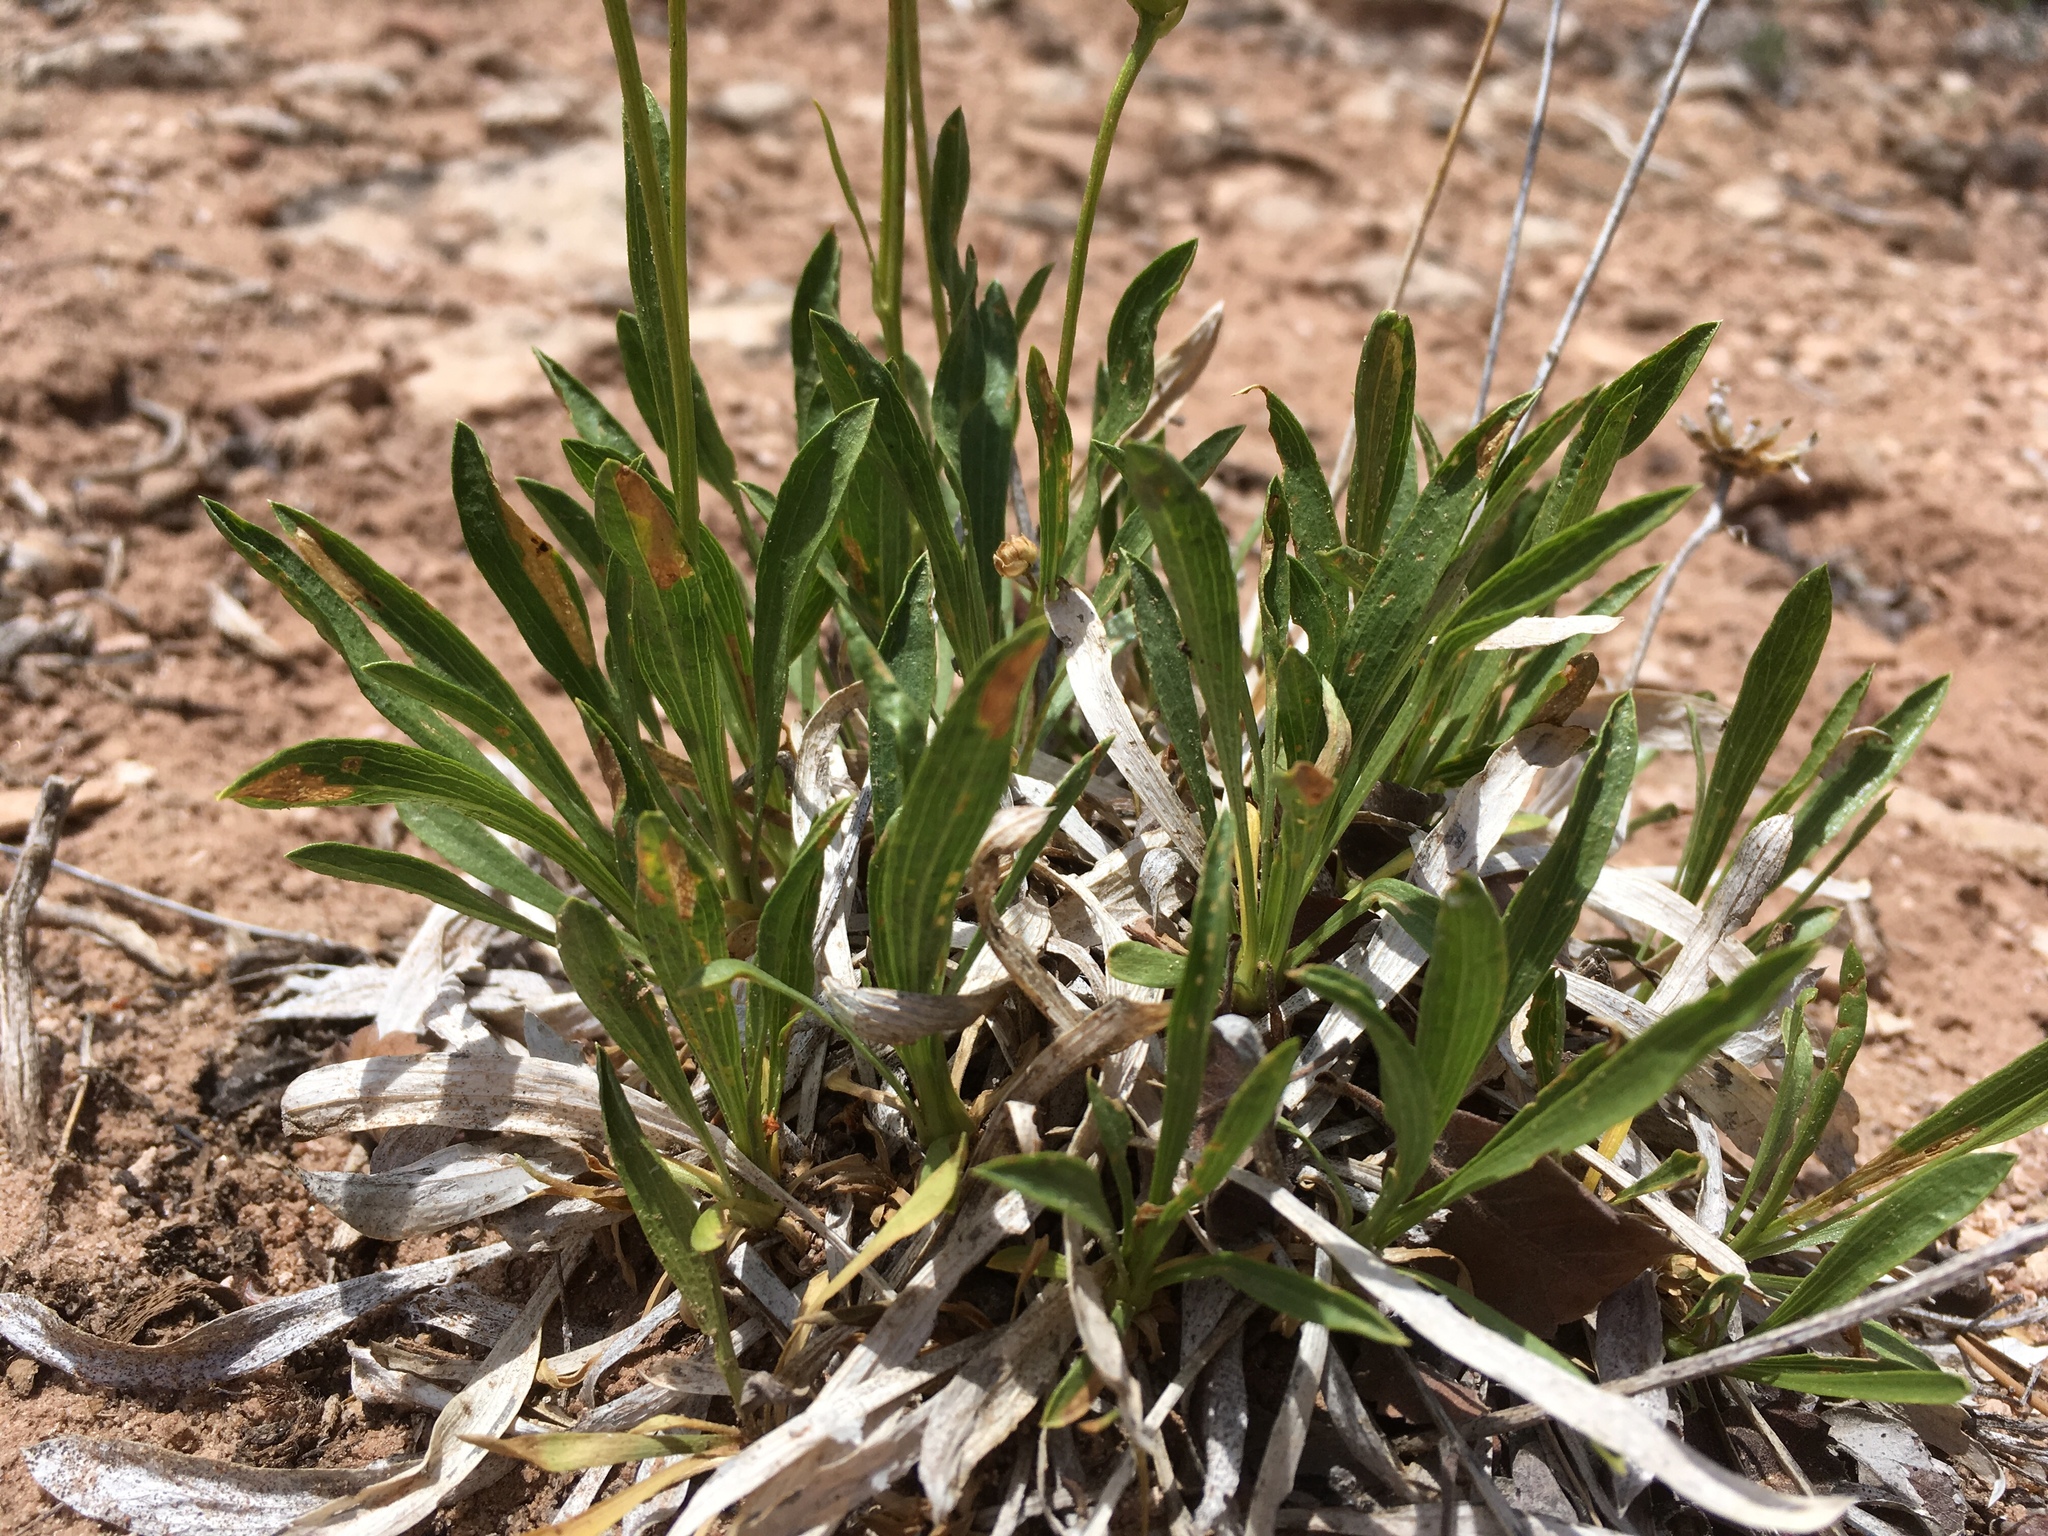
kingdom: Plantae
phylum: Tracheophyta
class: Magnoliopsida
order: Asterales
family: Asteraceae
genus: Stenotus
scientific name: Stenotus armerioides
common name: Thrifty goldenweed
